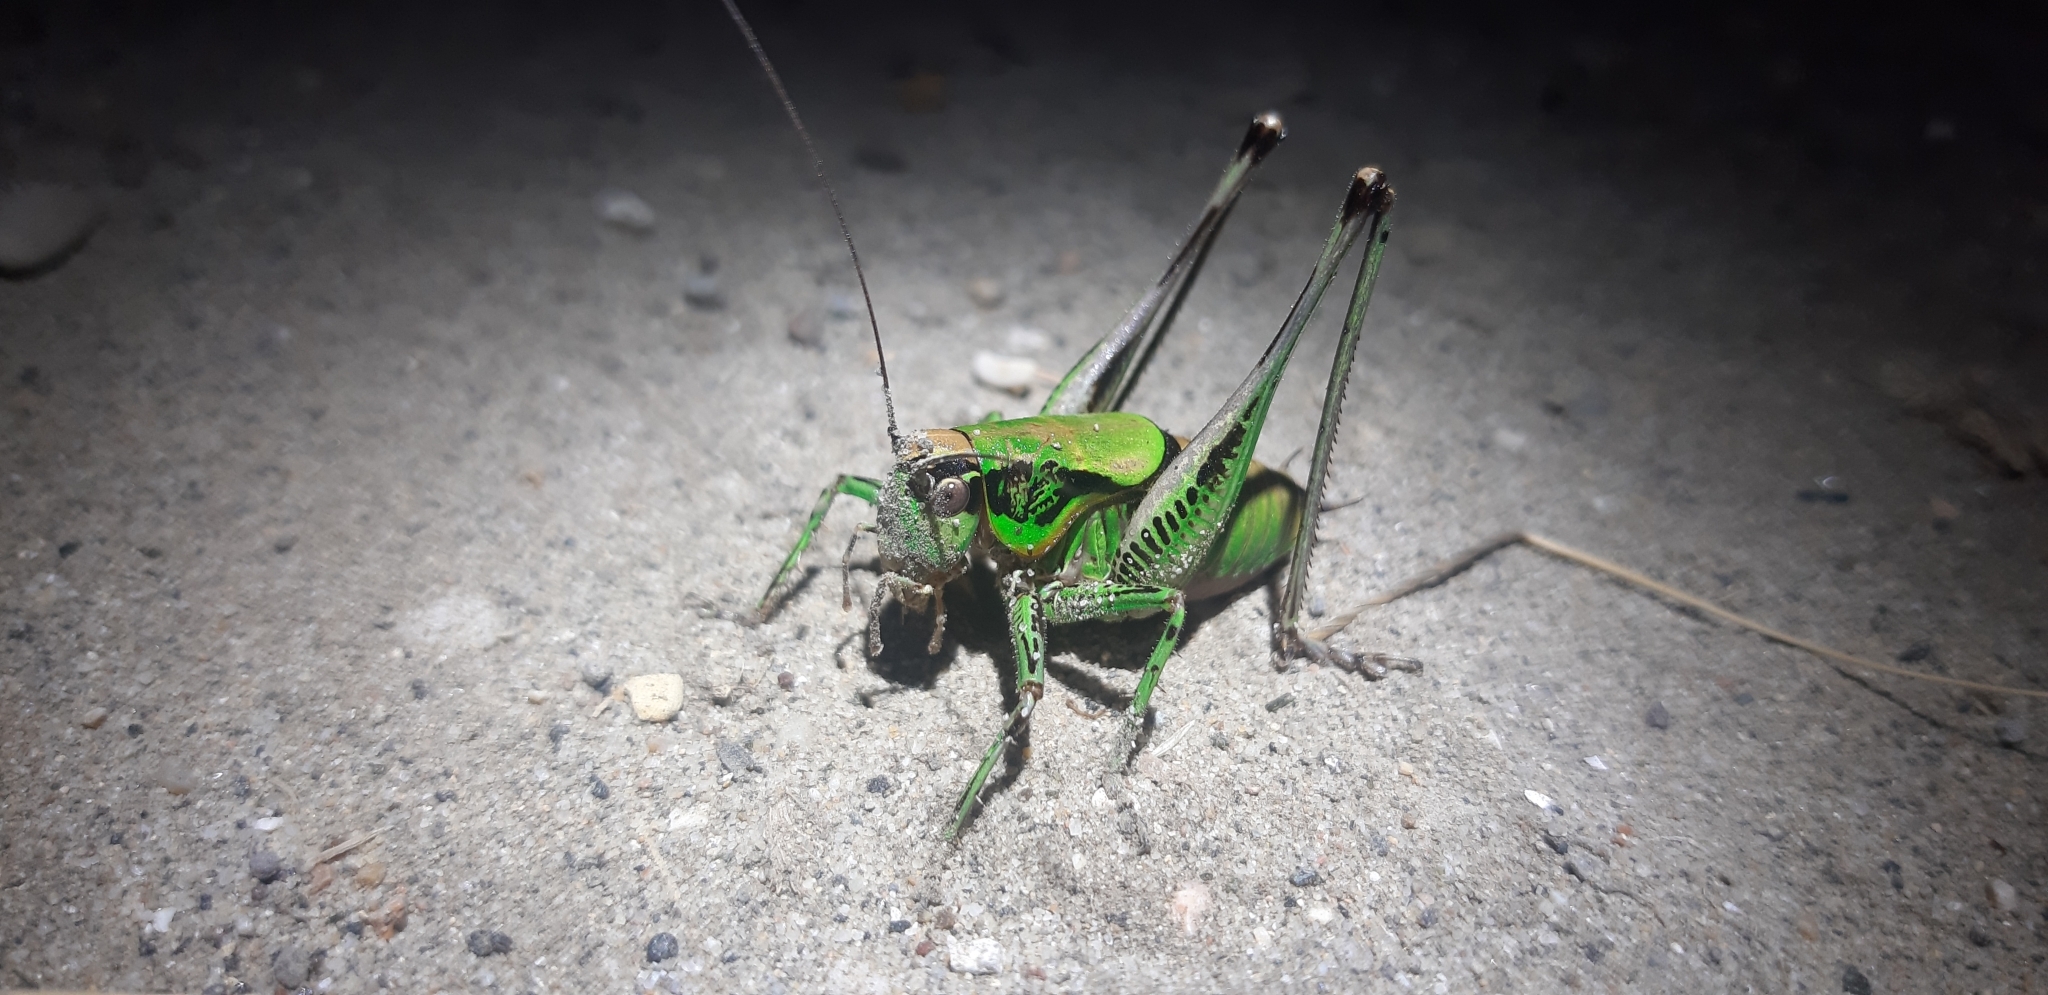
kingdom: Animalia
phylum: Arthropoda
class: Insecta
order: Orthoptera
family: Tettigoniidae
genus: Eupholidoptera
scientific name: Eupholidoptera magnifica
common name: Splendid marbled bush-cricket
